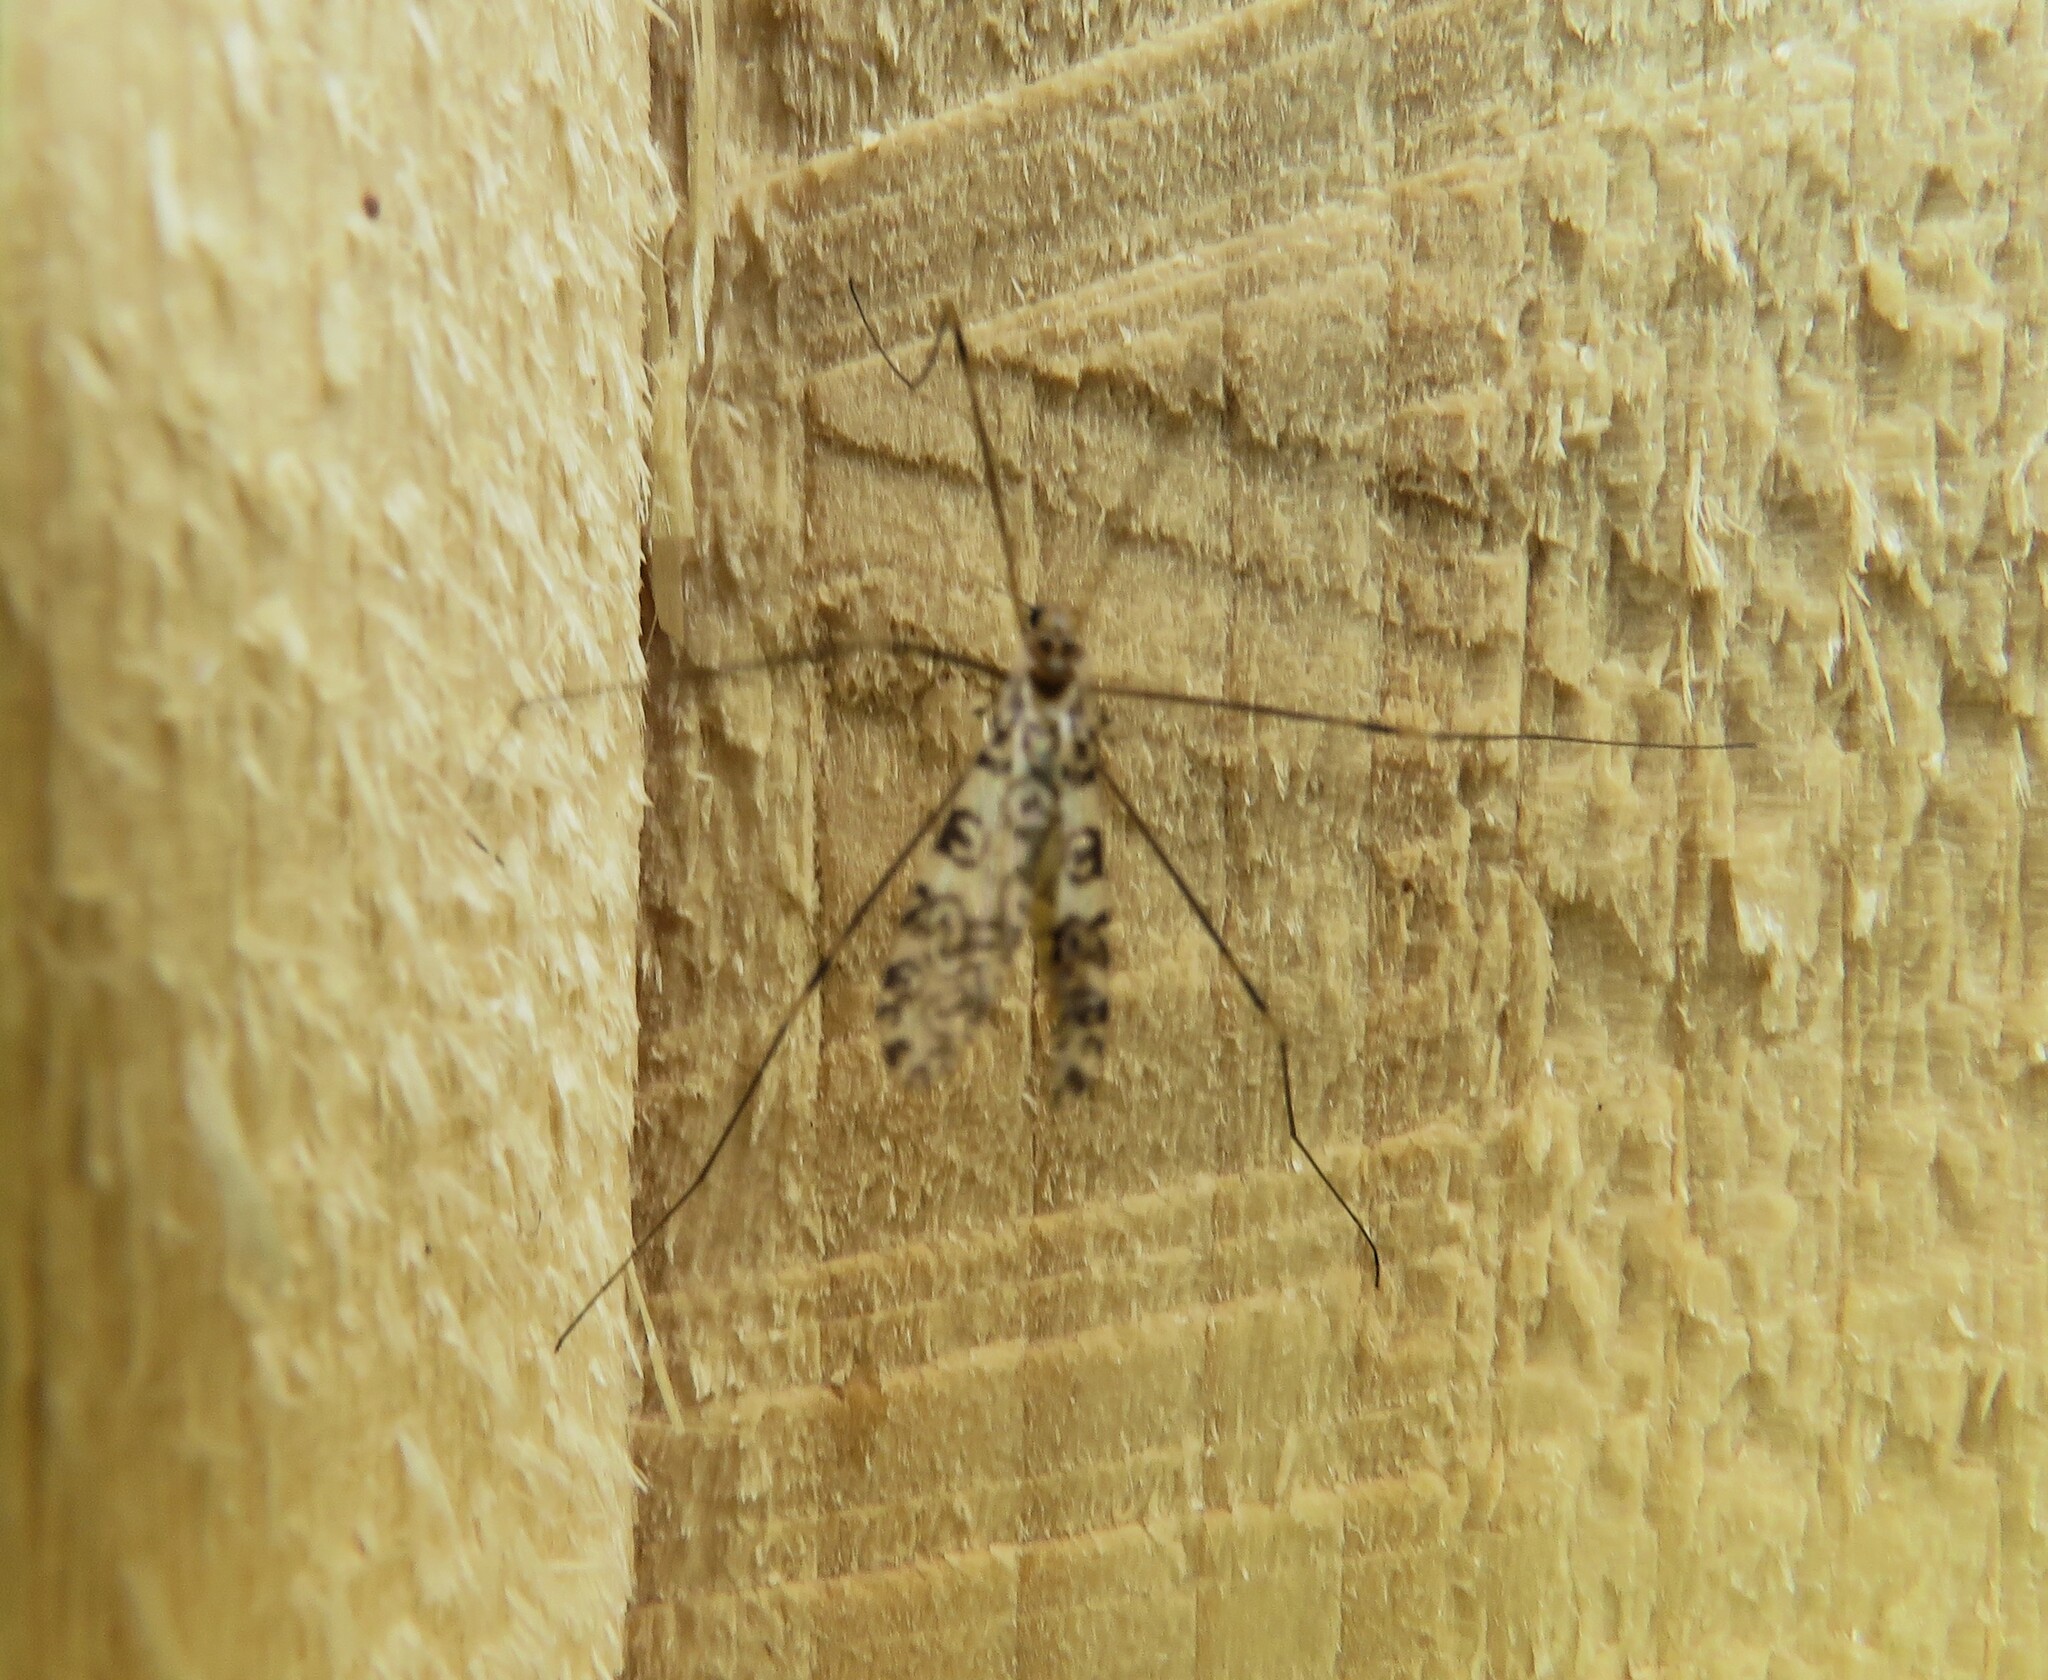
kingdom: Animalia
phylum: Arthropoda
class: Insecta
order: Diptera
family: Limoniidae
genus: Limonia
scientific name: Limonia annulata
